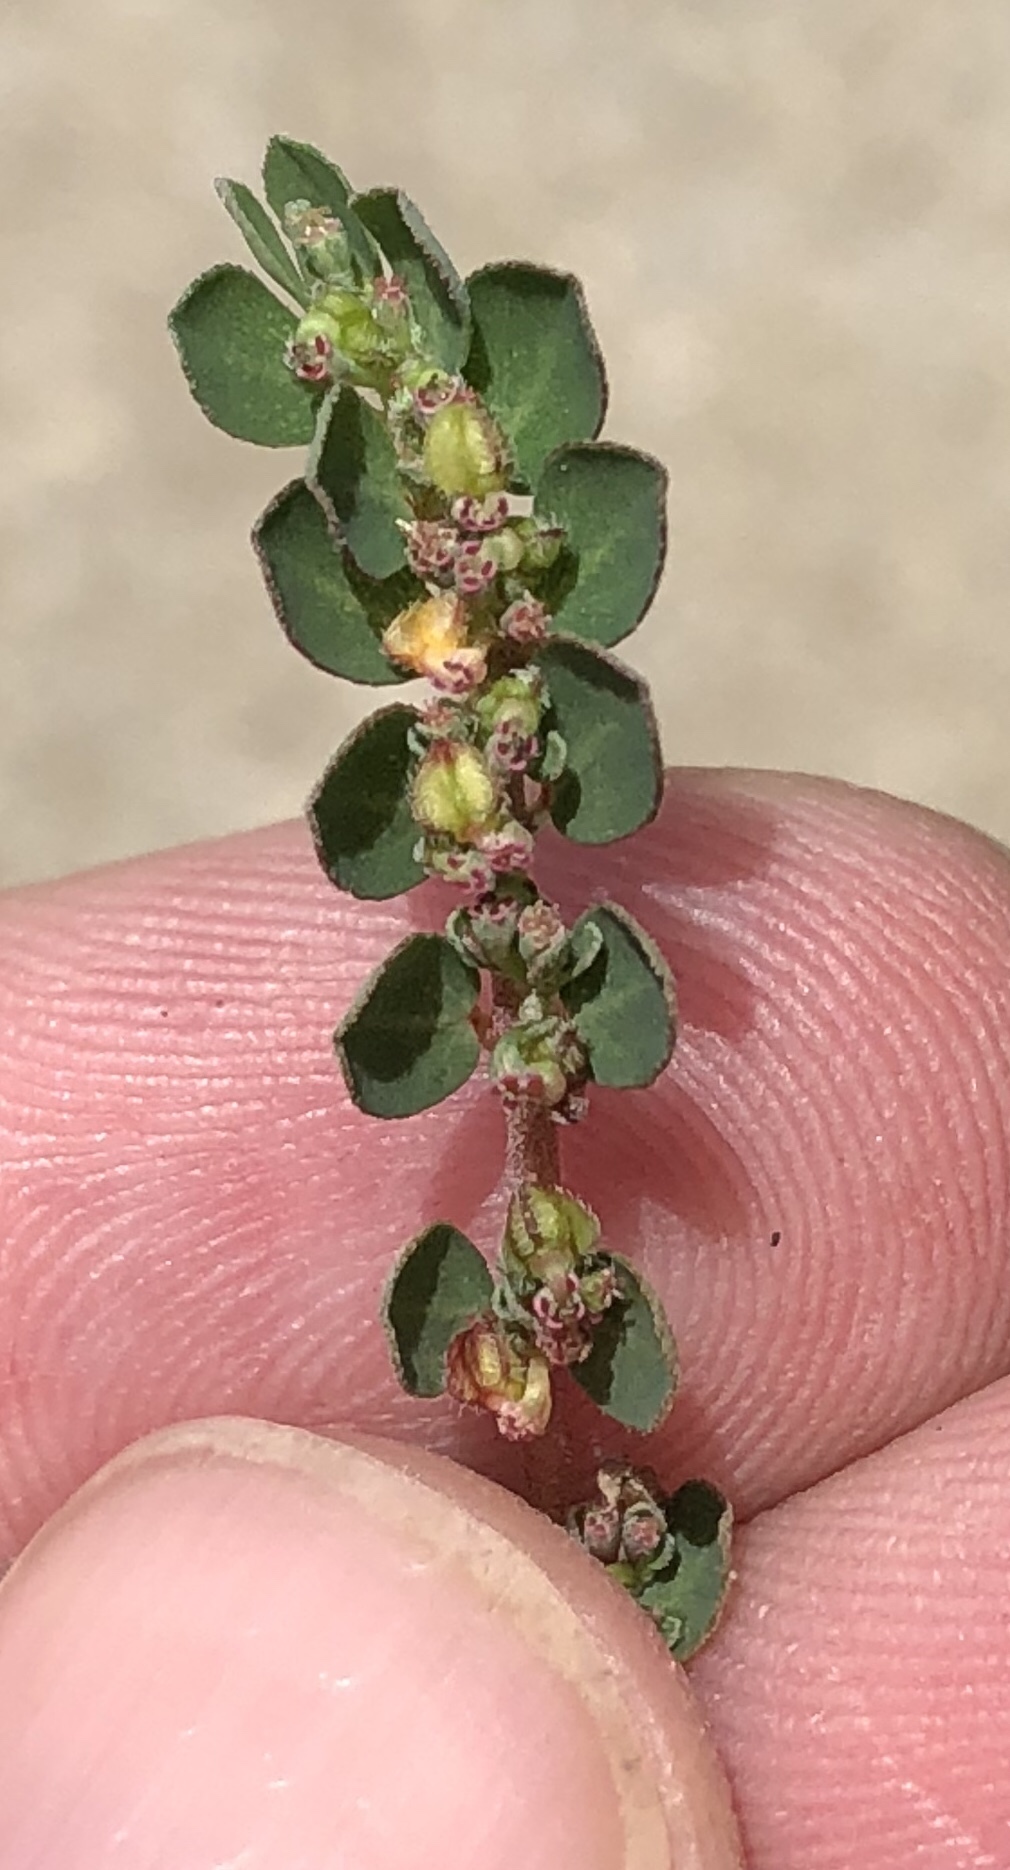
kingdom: Plantae
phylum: Tracheophyta
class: Magnoliopsida
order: Malpighiales
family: Euphorbiaceae
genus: Euphorbia
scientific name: Euphorbia prostrata
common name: Prostrate sandmat
